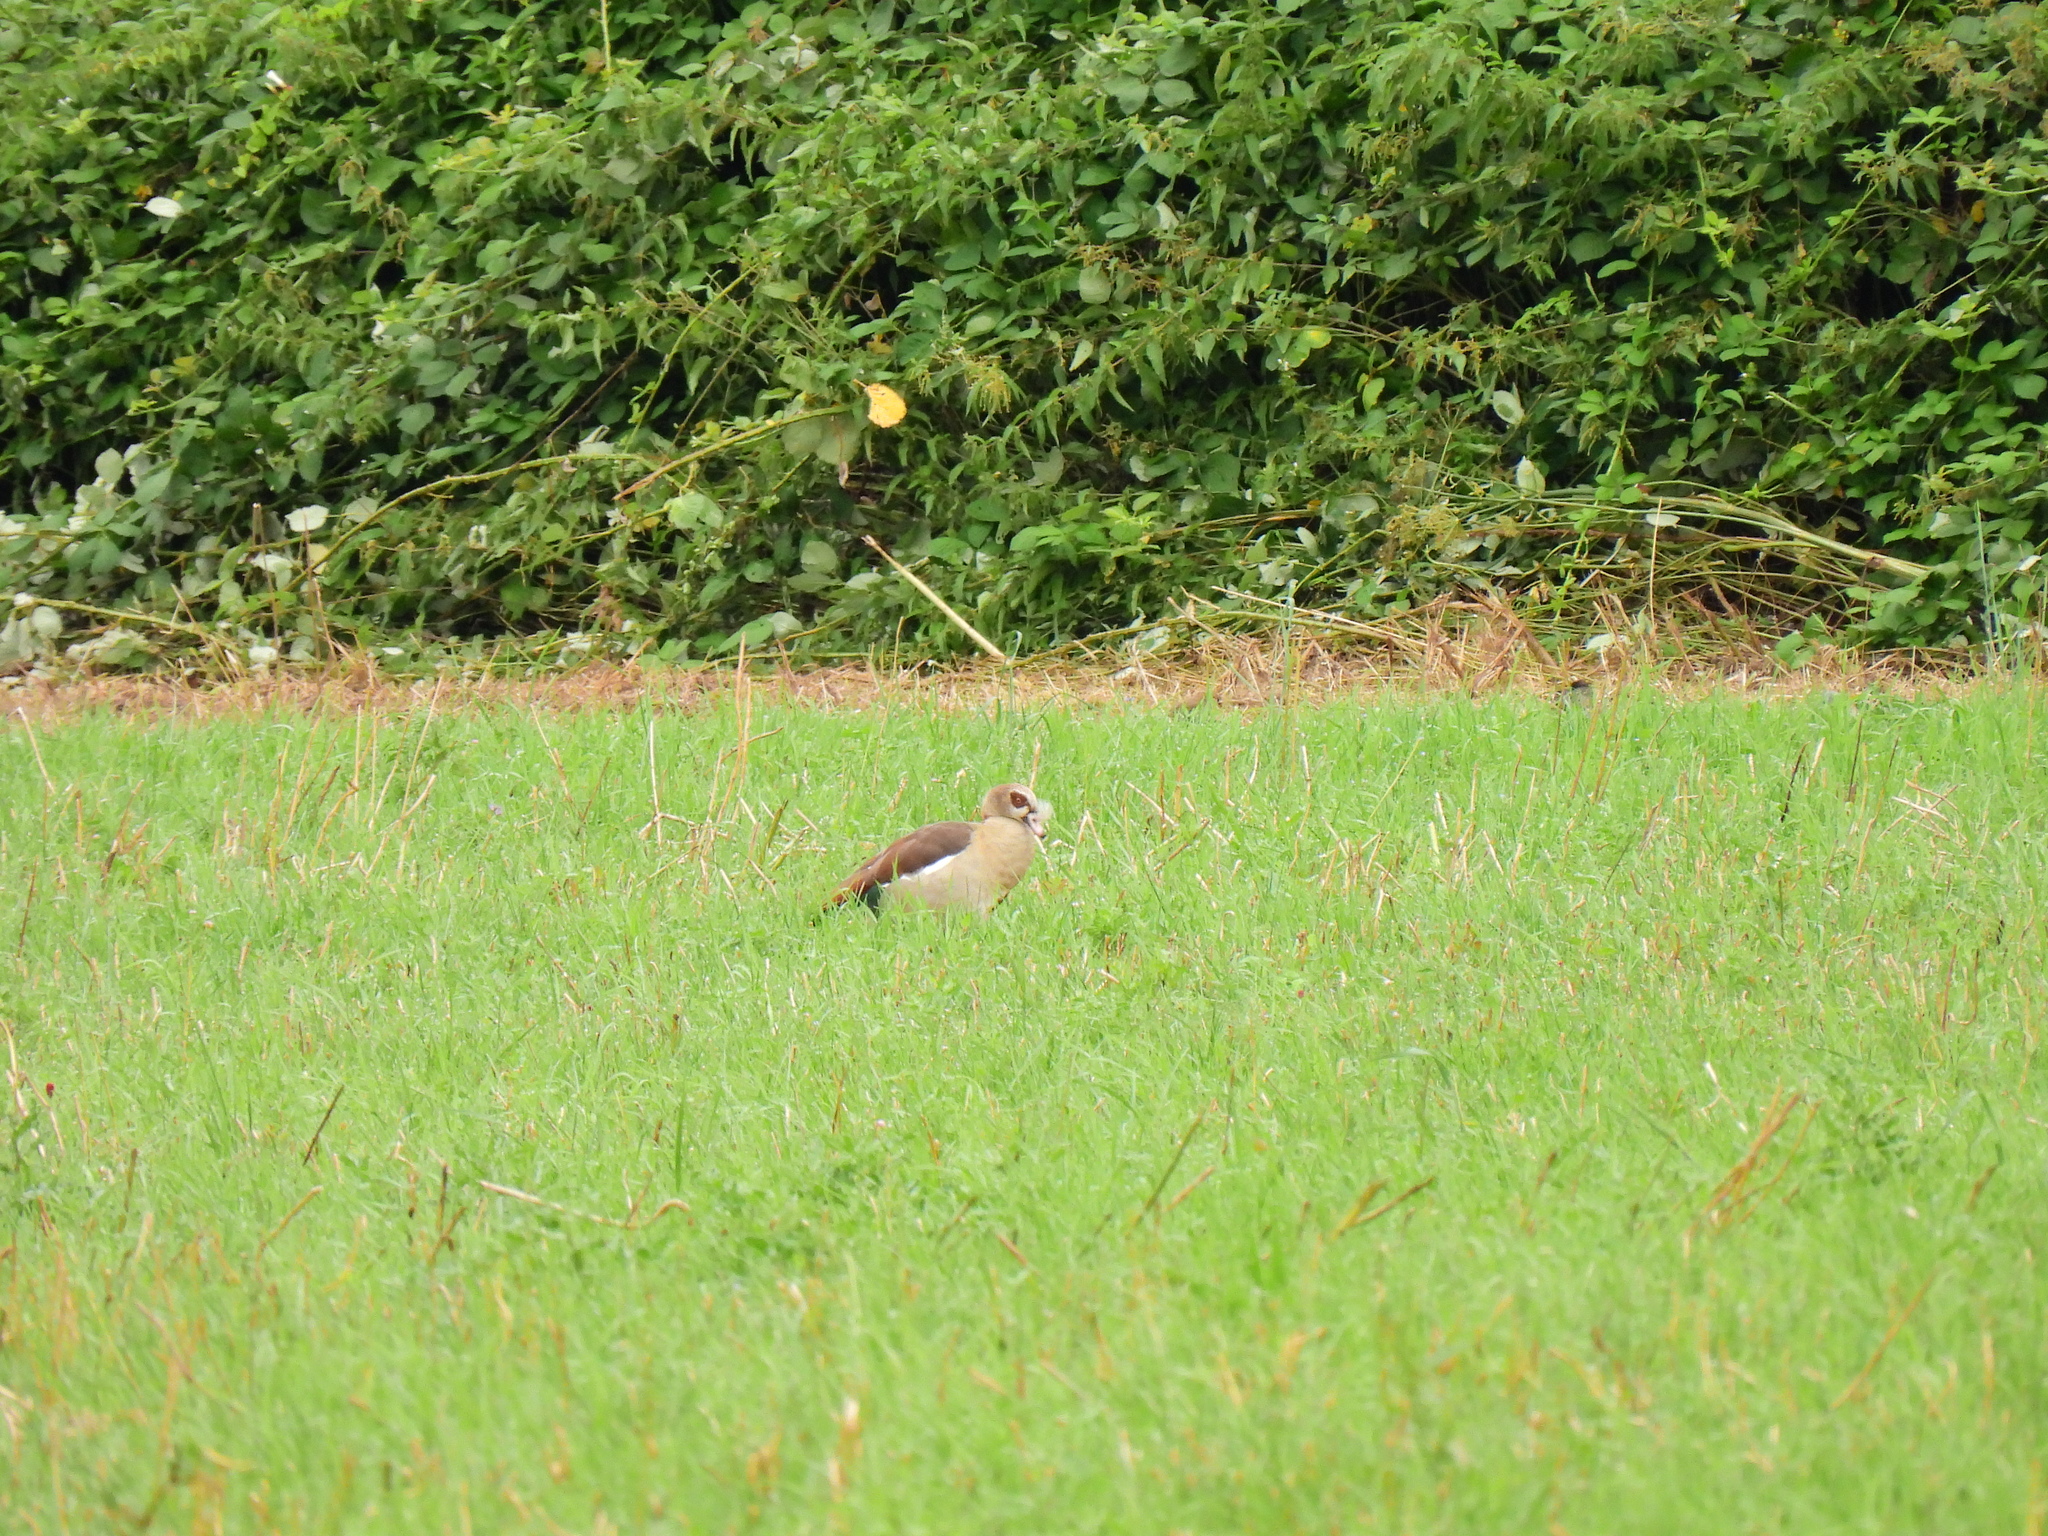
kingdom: Animalia
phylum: Chordata
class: Aves
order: Anseriformes
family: Anatidae
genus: Alopochen
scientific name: Alopochen aegyptiaca
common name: Egyptian goose
